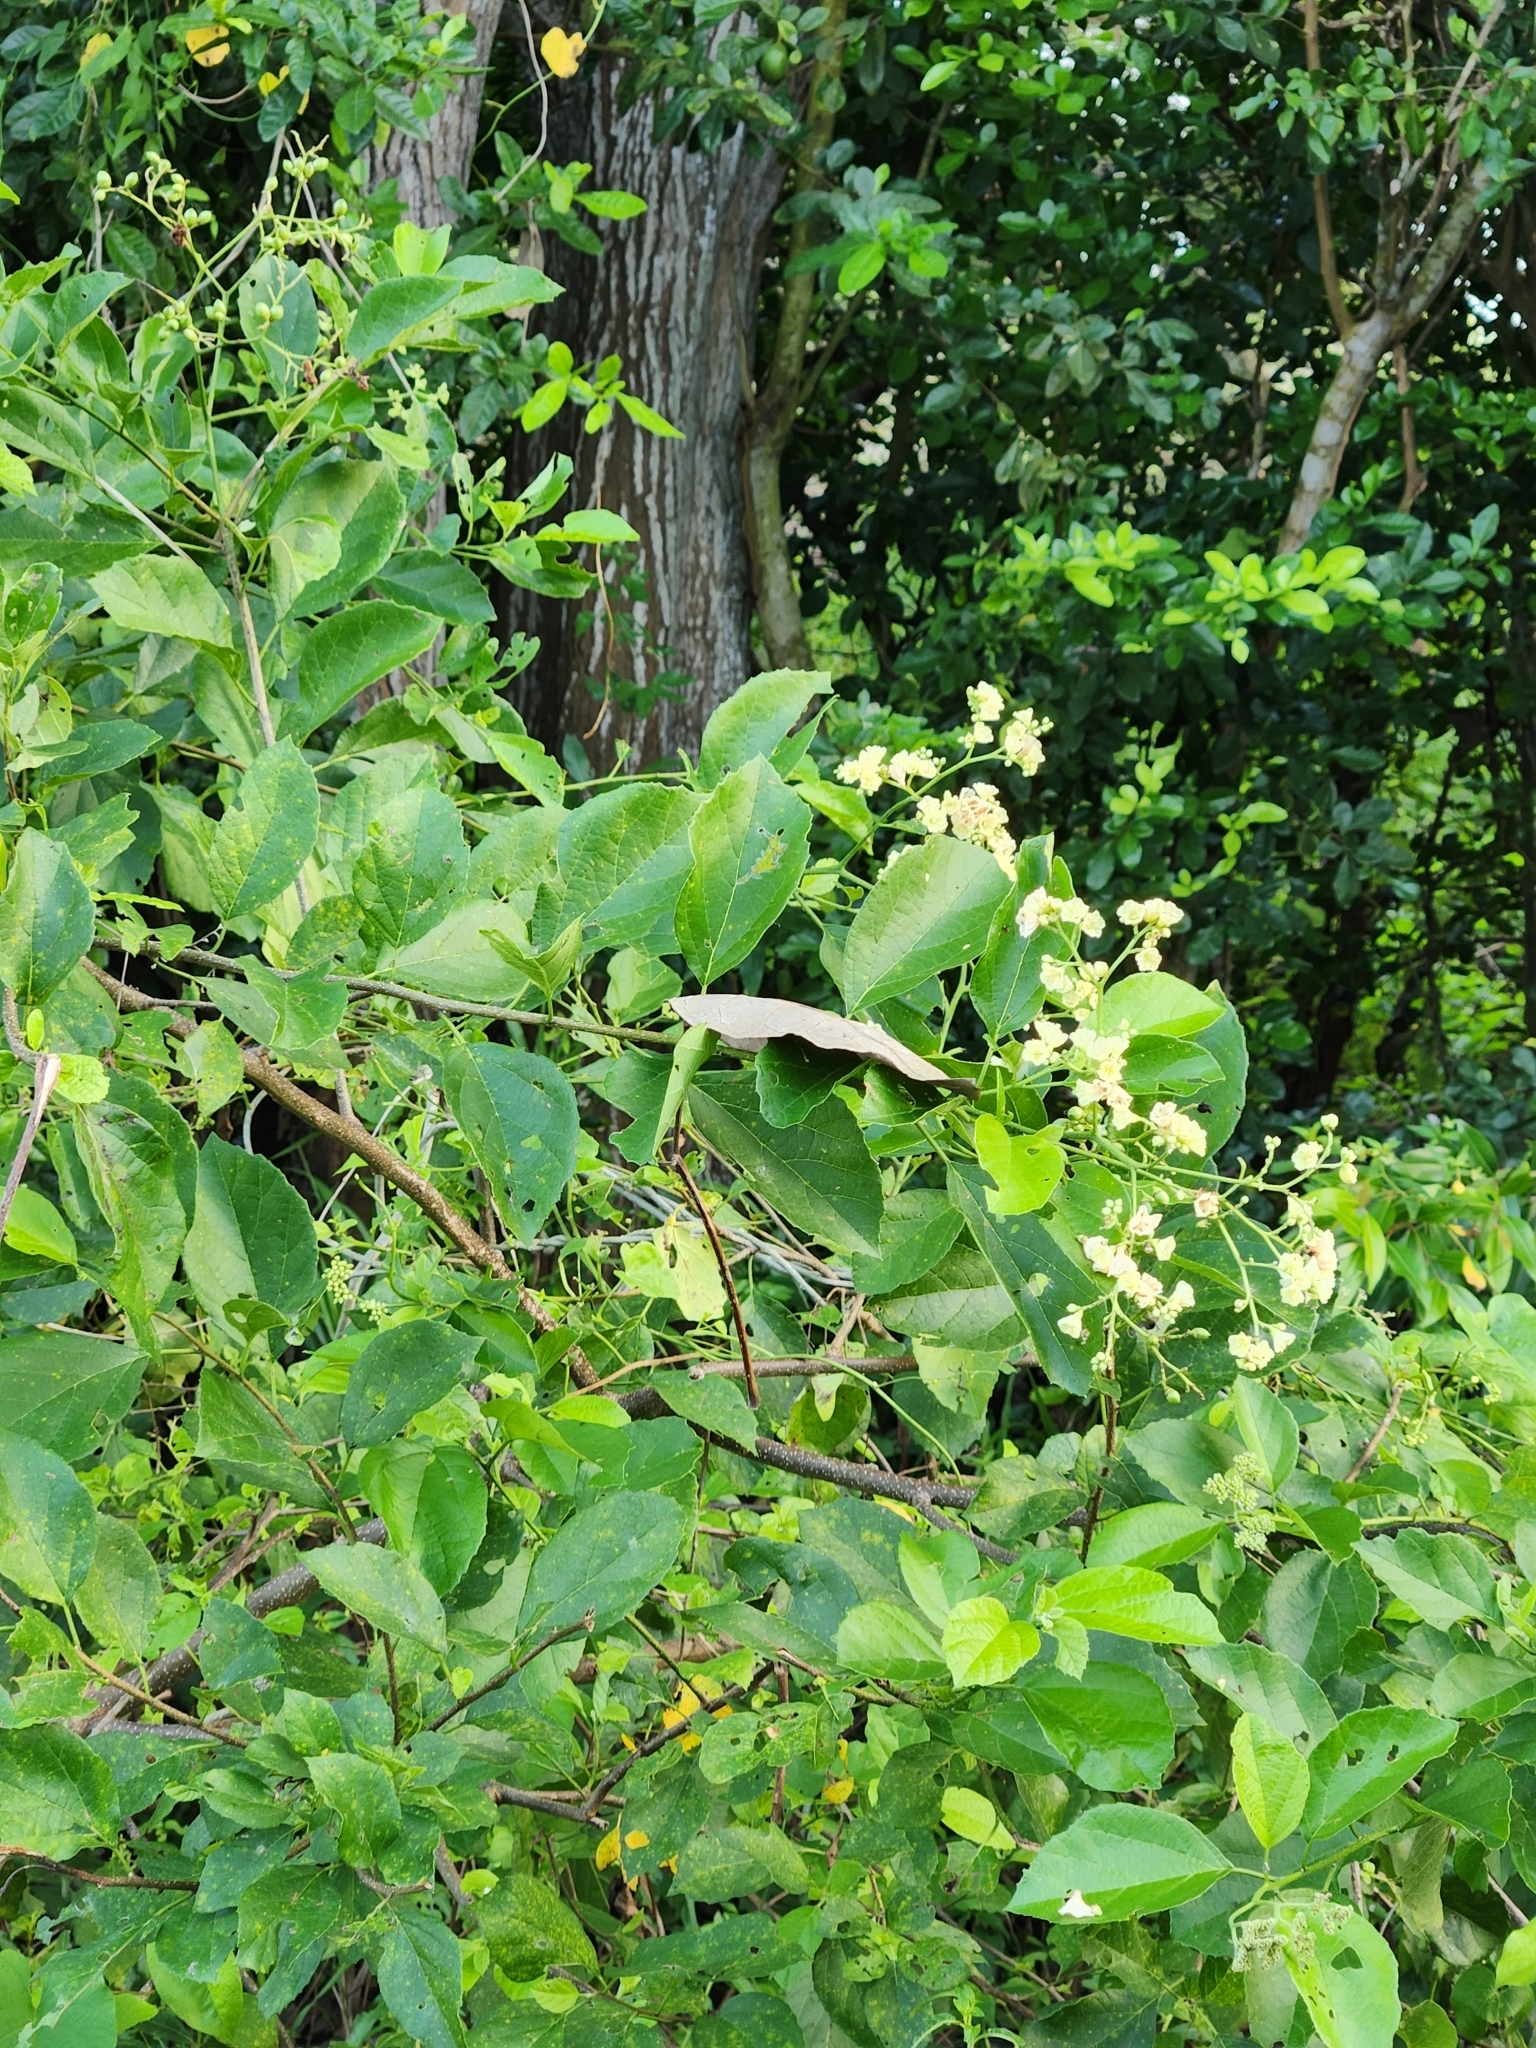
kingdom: Plantae
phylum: Tracheophyta
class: Magnoliopsida
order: Boraginales
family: Cordiaceae
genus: Cordia
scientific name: Cordia dentata
